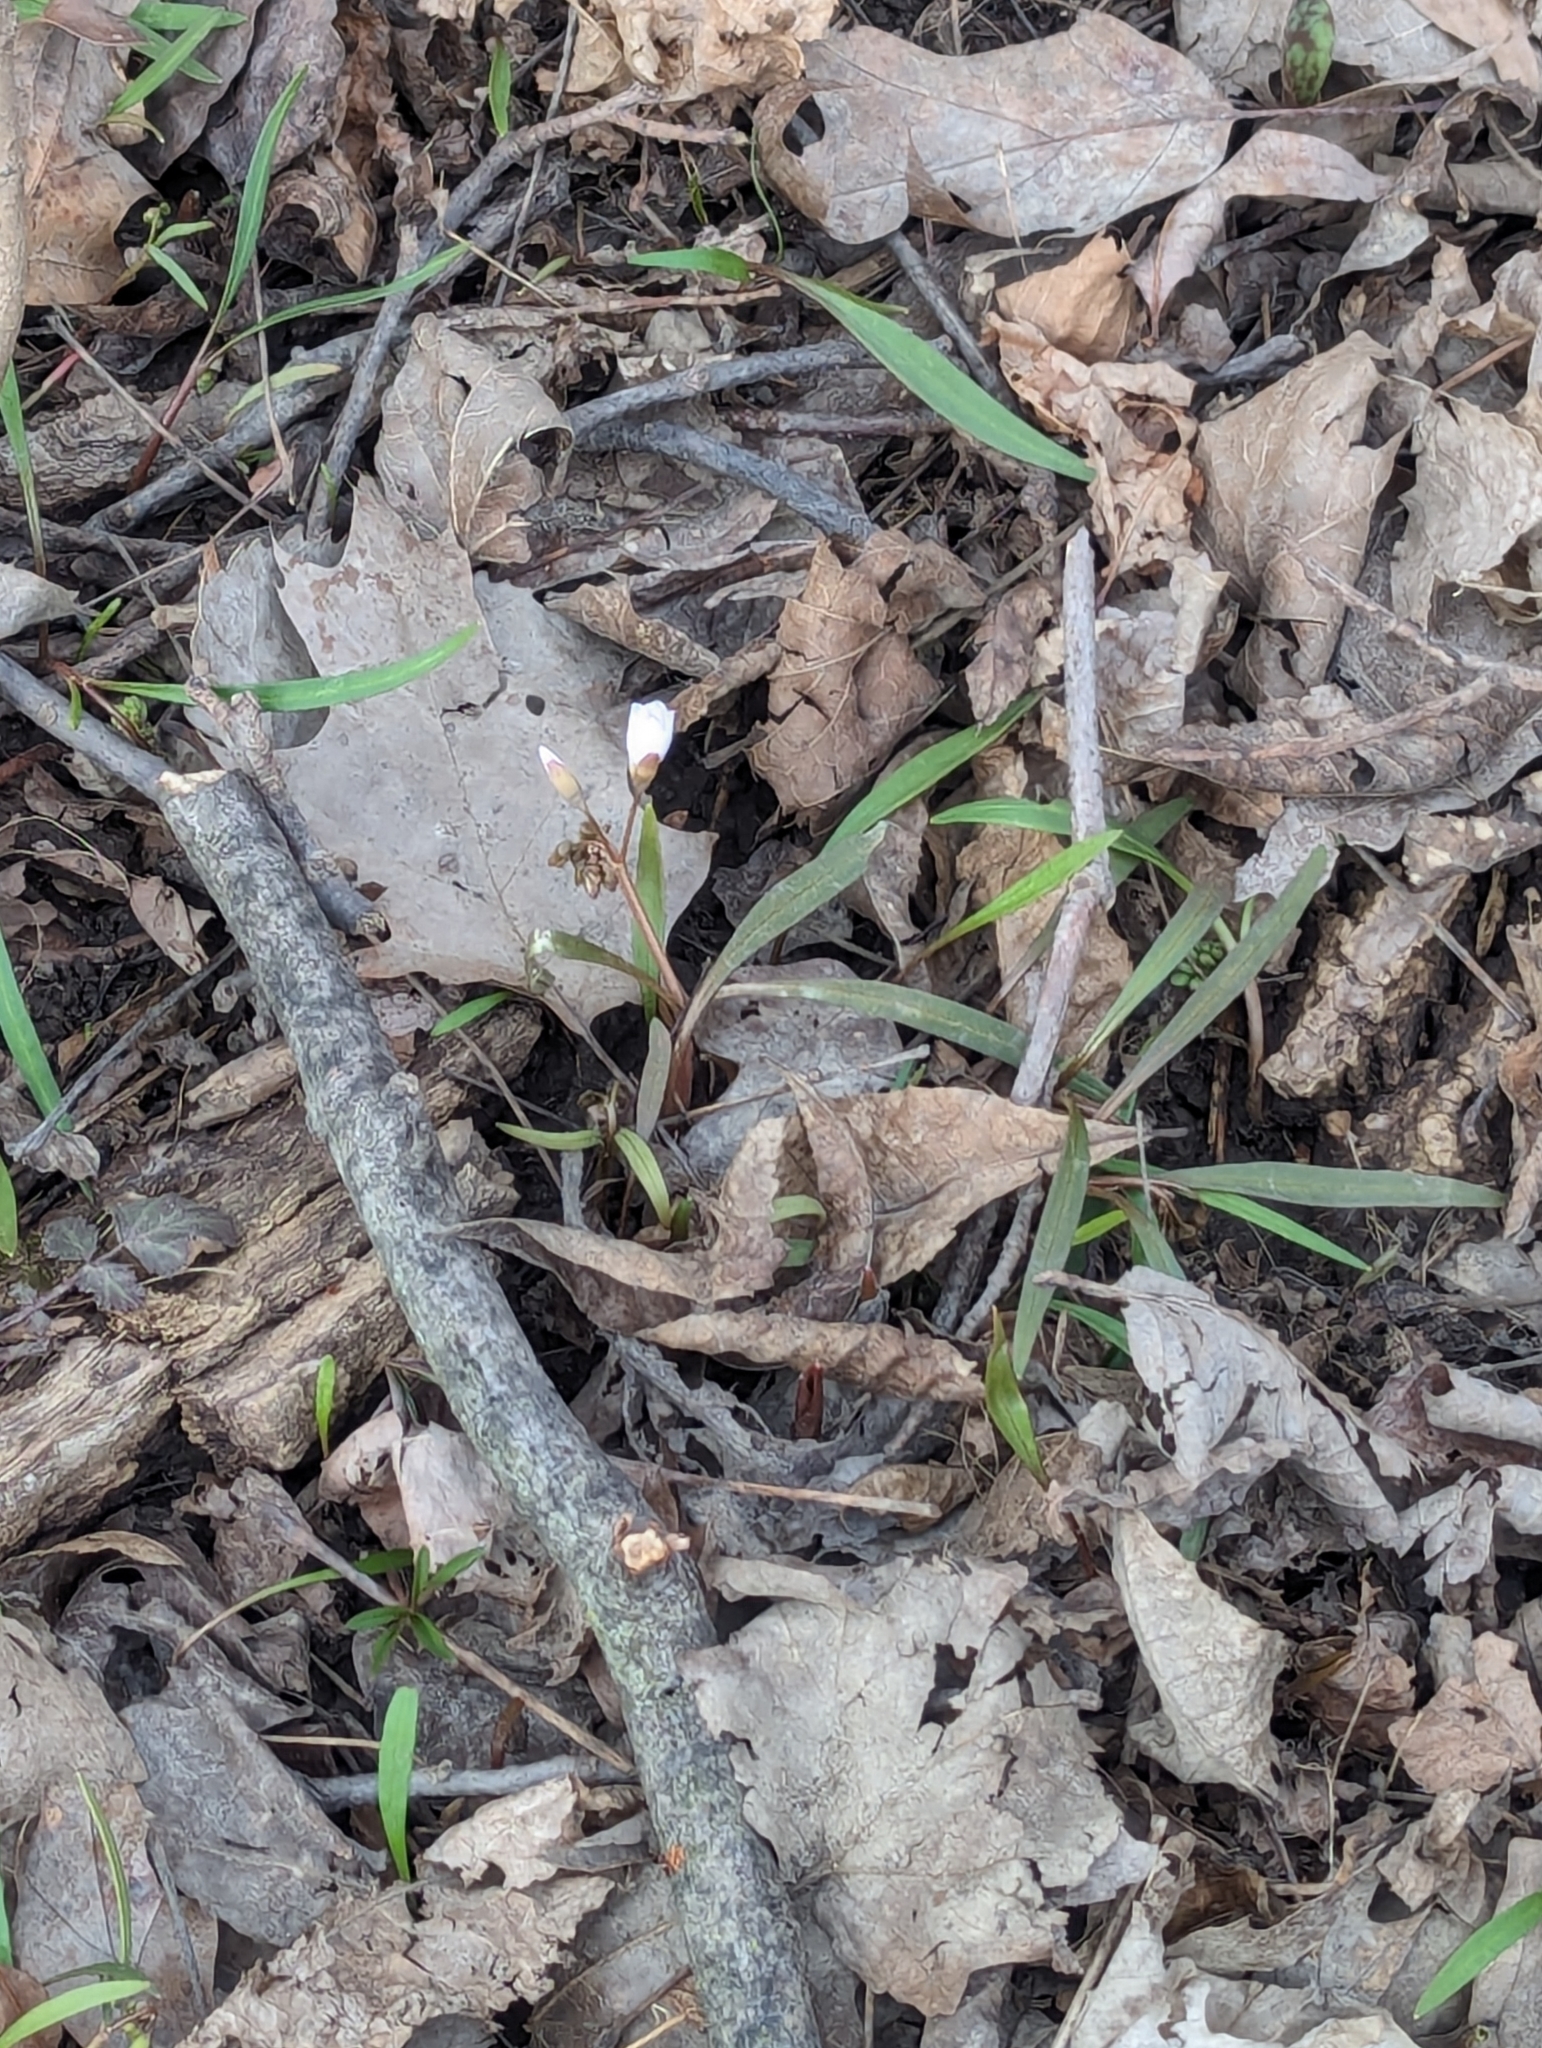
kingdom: Plantae
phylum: Tracheophyta
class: Magnoliopsida
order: Caryophyllales
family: Montiaceae
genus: Claytonia
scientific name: Claytonia virginica
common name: Virginia springbeauty
